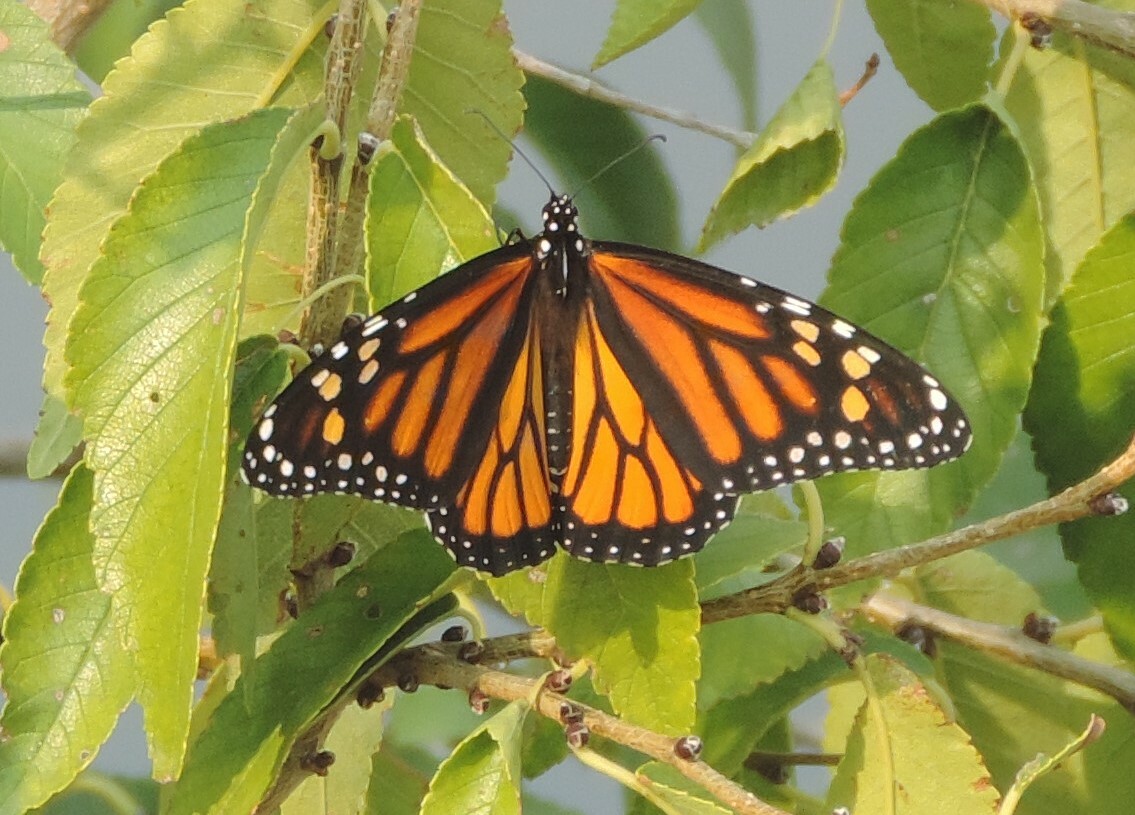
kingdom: Animalia
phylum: Arthropoda
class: Insecta
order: Lepidoptera
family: Nymphalidae
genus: Danaus
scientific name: Danaus plexippus
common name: Monarch
